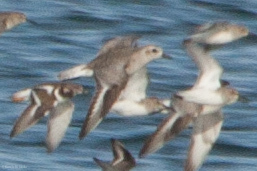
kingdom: Animalia
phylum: Chordata
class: Aves
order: Charadriiformes
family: Charadriidae
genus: Pluvialis
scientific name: Pluvialis squatarola
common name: Grey plover
